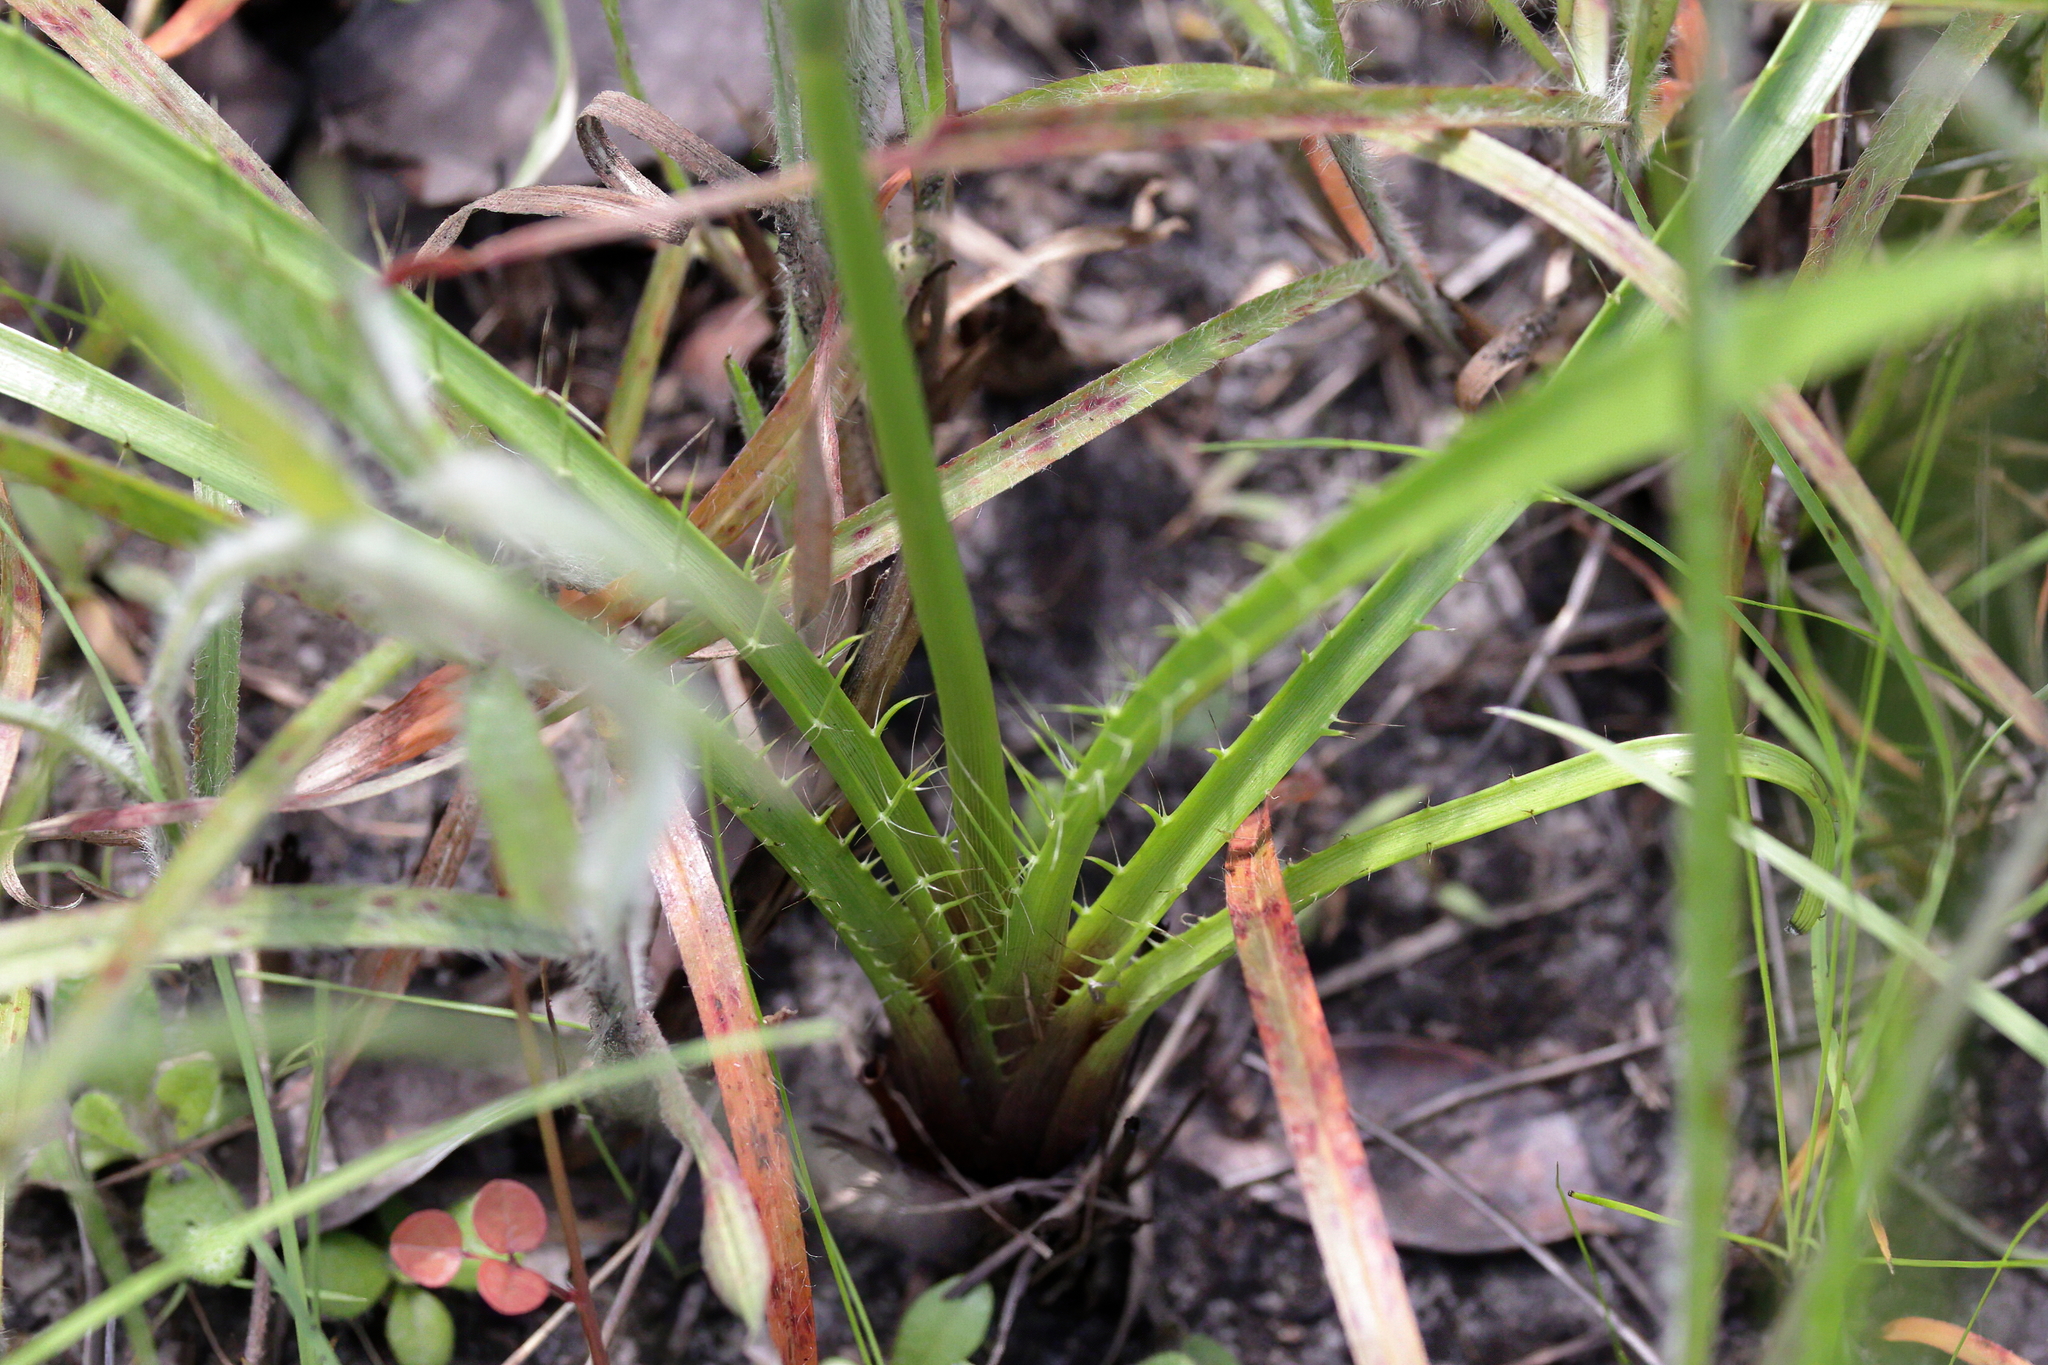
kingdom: Plantae
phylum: Tracheophyta
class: Magnoliopsida
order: Apiales
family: Apiaceae
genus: Eryngium
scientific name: Eryngium yuccifolium
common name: Button eryngo
